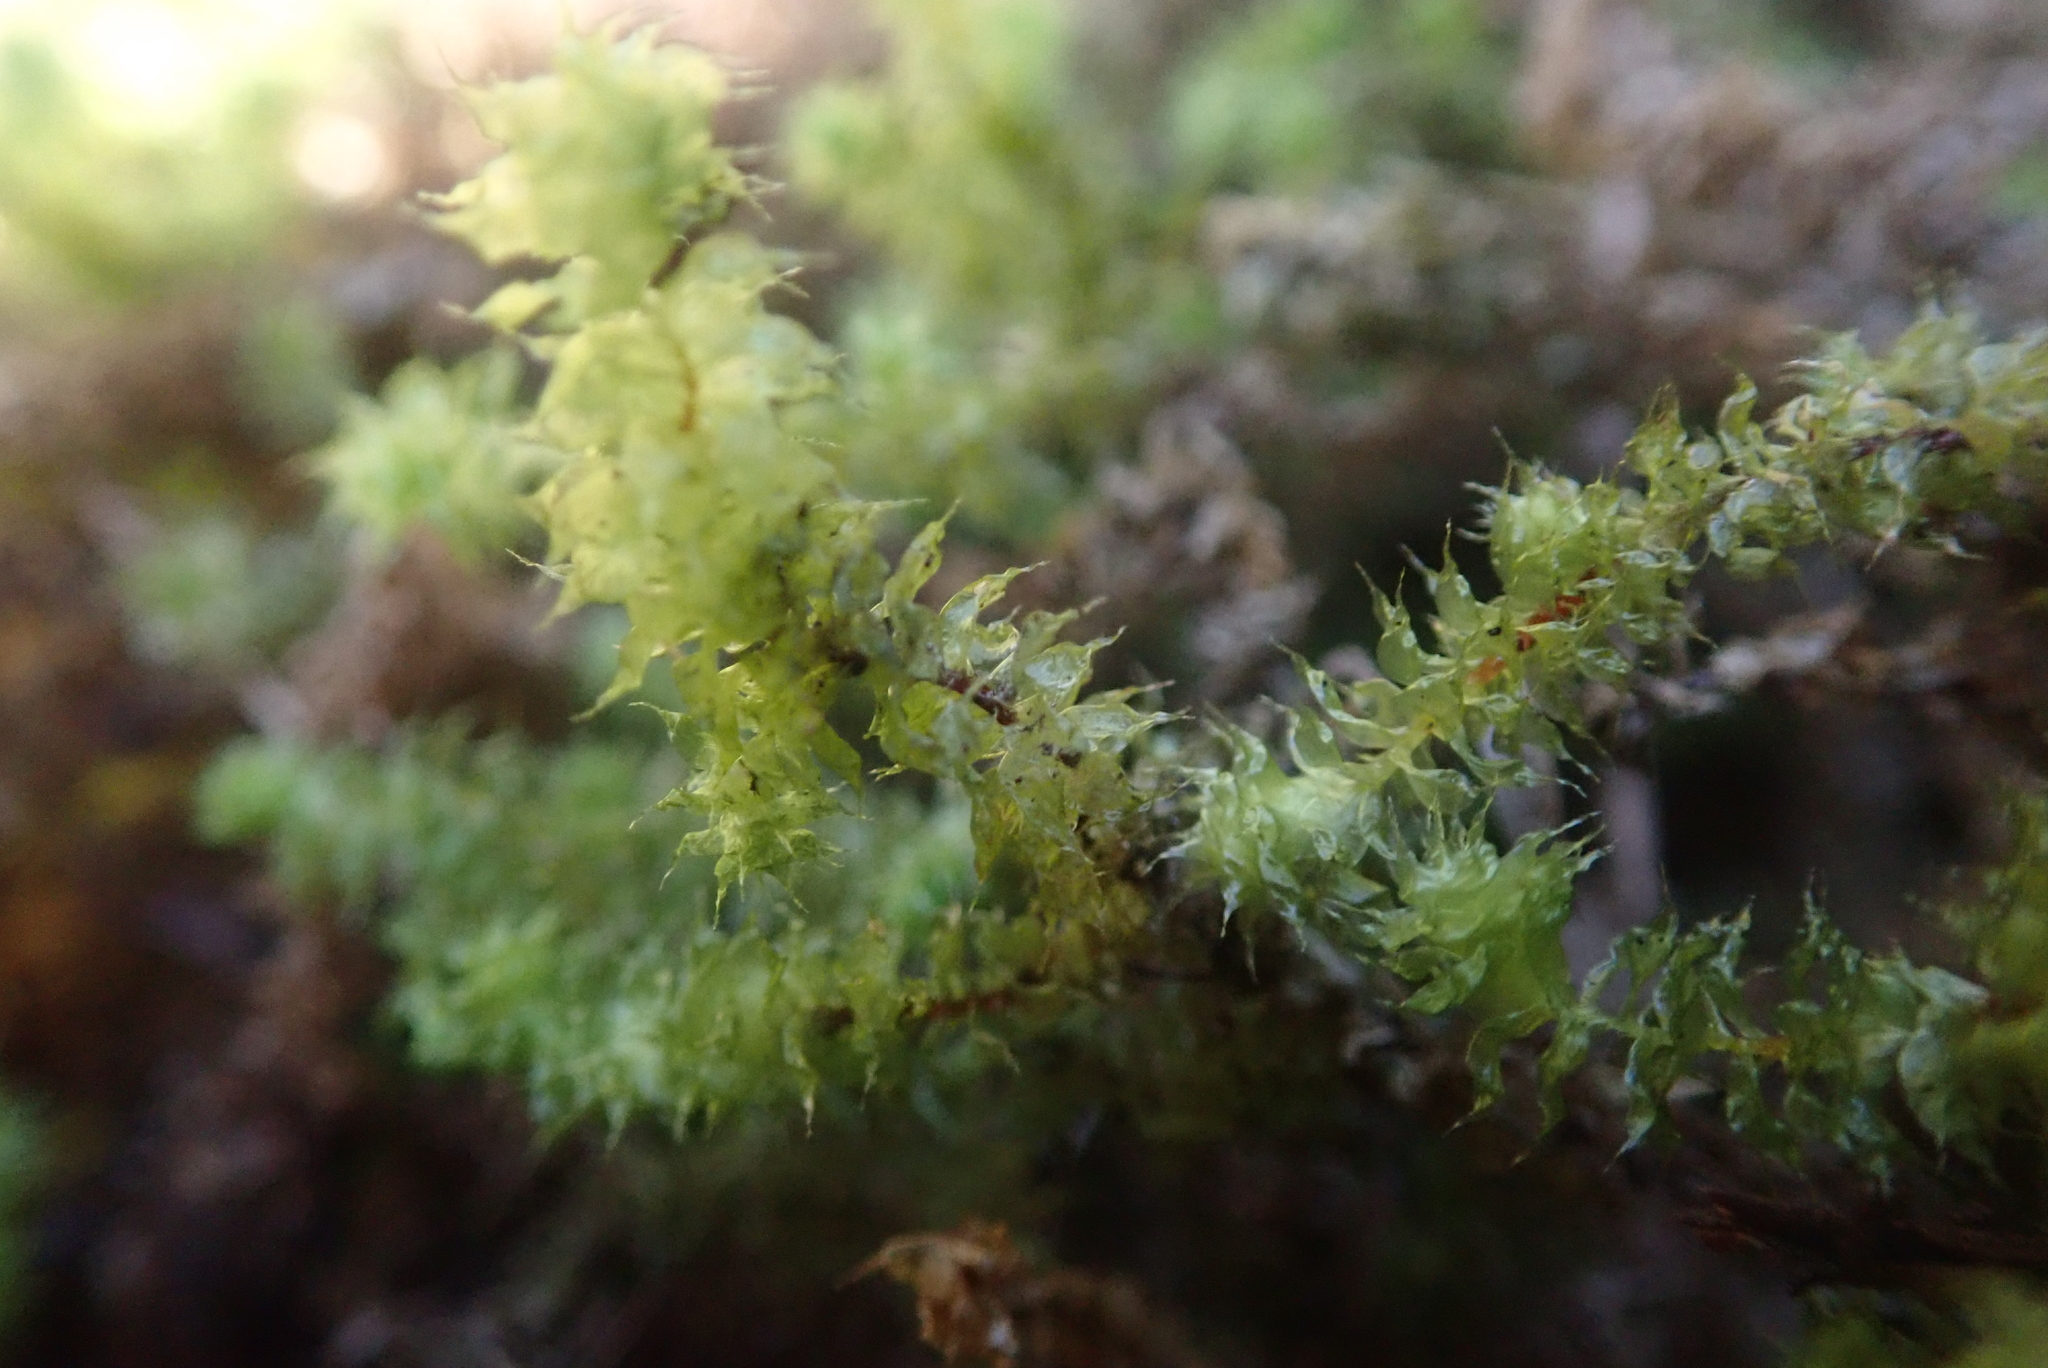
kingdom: Plantae
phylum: Bryophyta
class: Bryopsida
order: Ptychomniales
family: Ptychomniaceae
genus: Ptychomnion
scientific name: Ptychomnion aciculare
